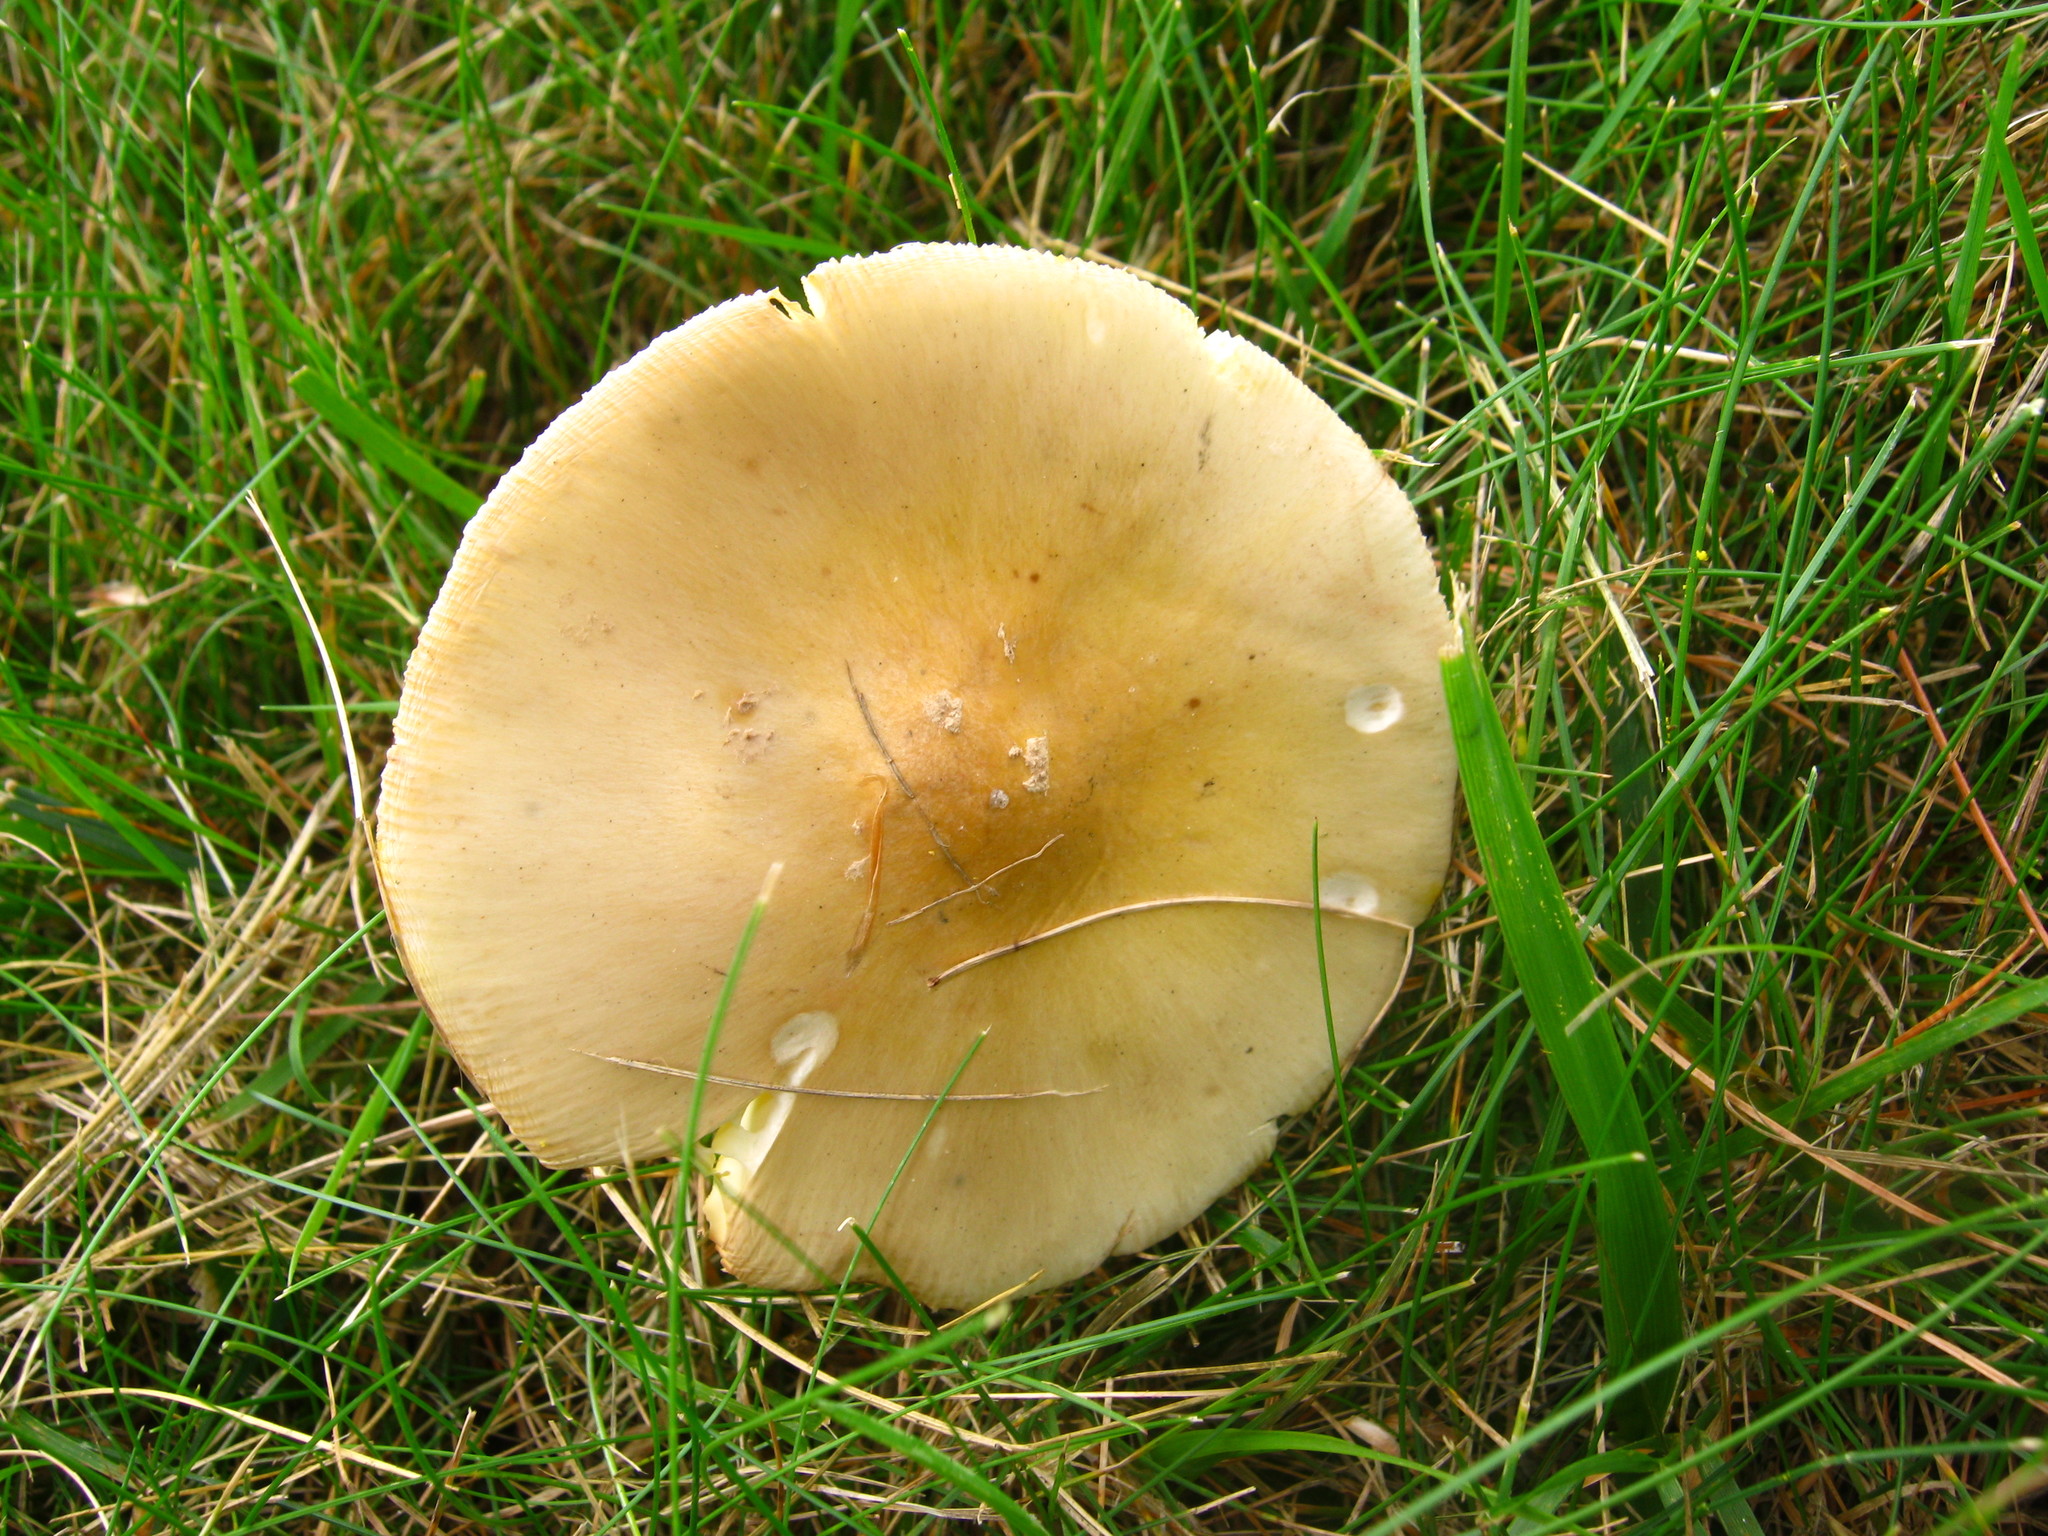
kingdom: Fungi
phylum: Basidiomycota
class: Agaricomycetes
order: Agaricales
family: Amanitaceae
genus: Amanita
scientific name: Amanita flavoconia
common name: Yellow patches
